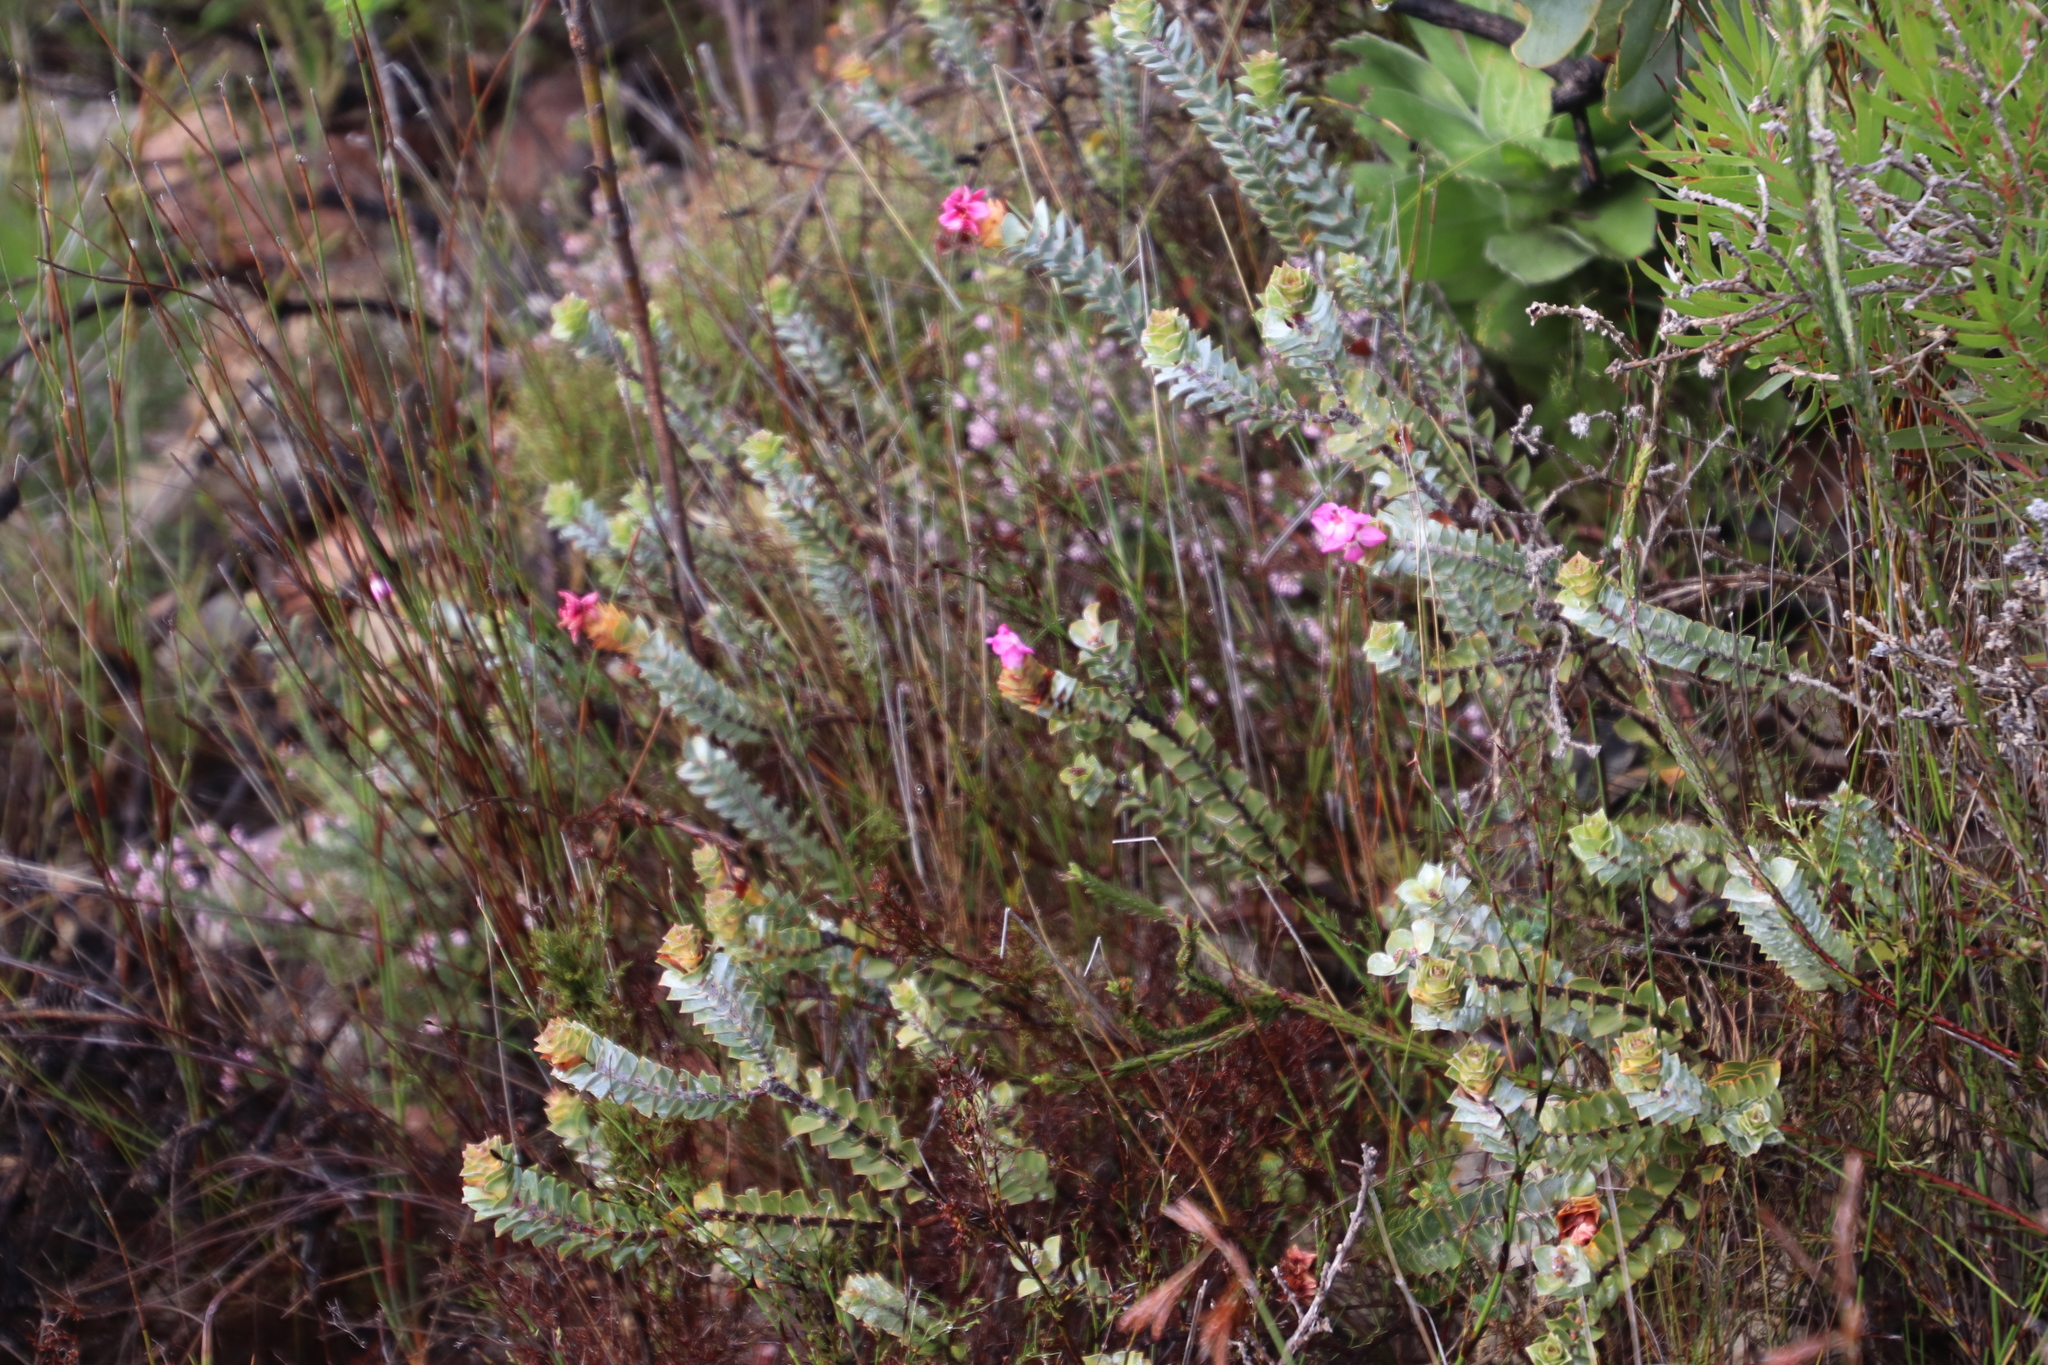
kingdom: Plantae
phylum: Tracheophyta
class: Magnoliopsida
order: Myrtales
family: Penaeaceae
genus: Saltera
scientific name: Saltera sarcocolla
